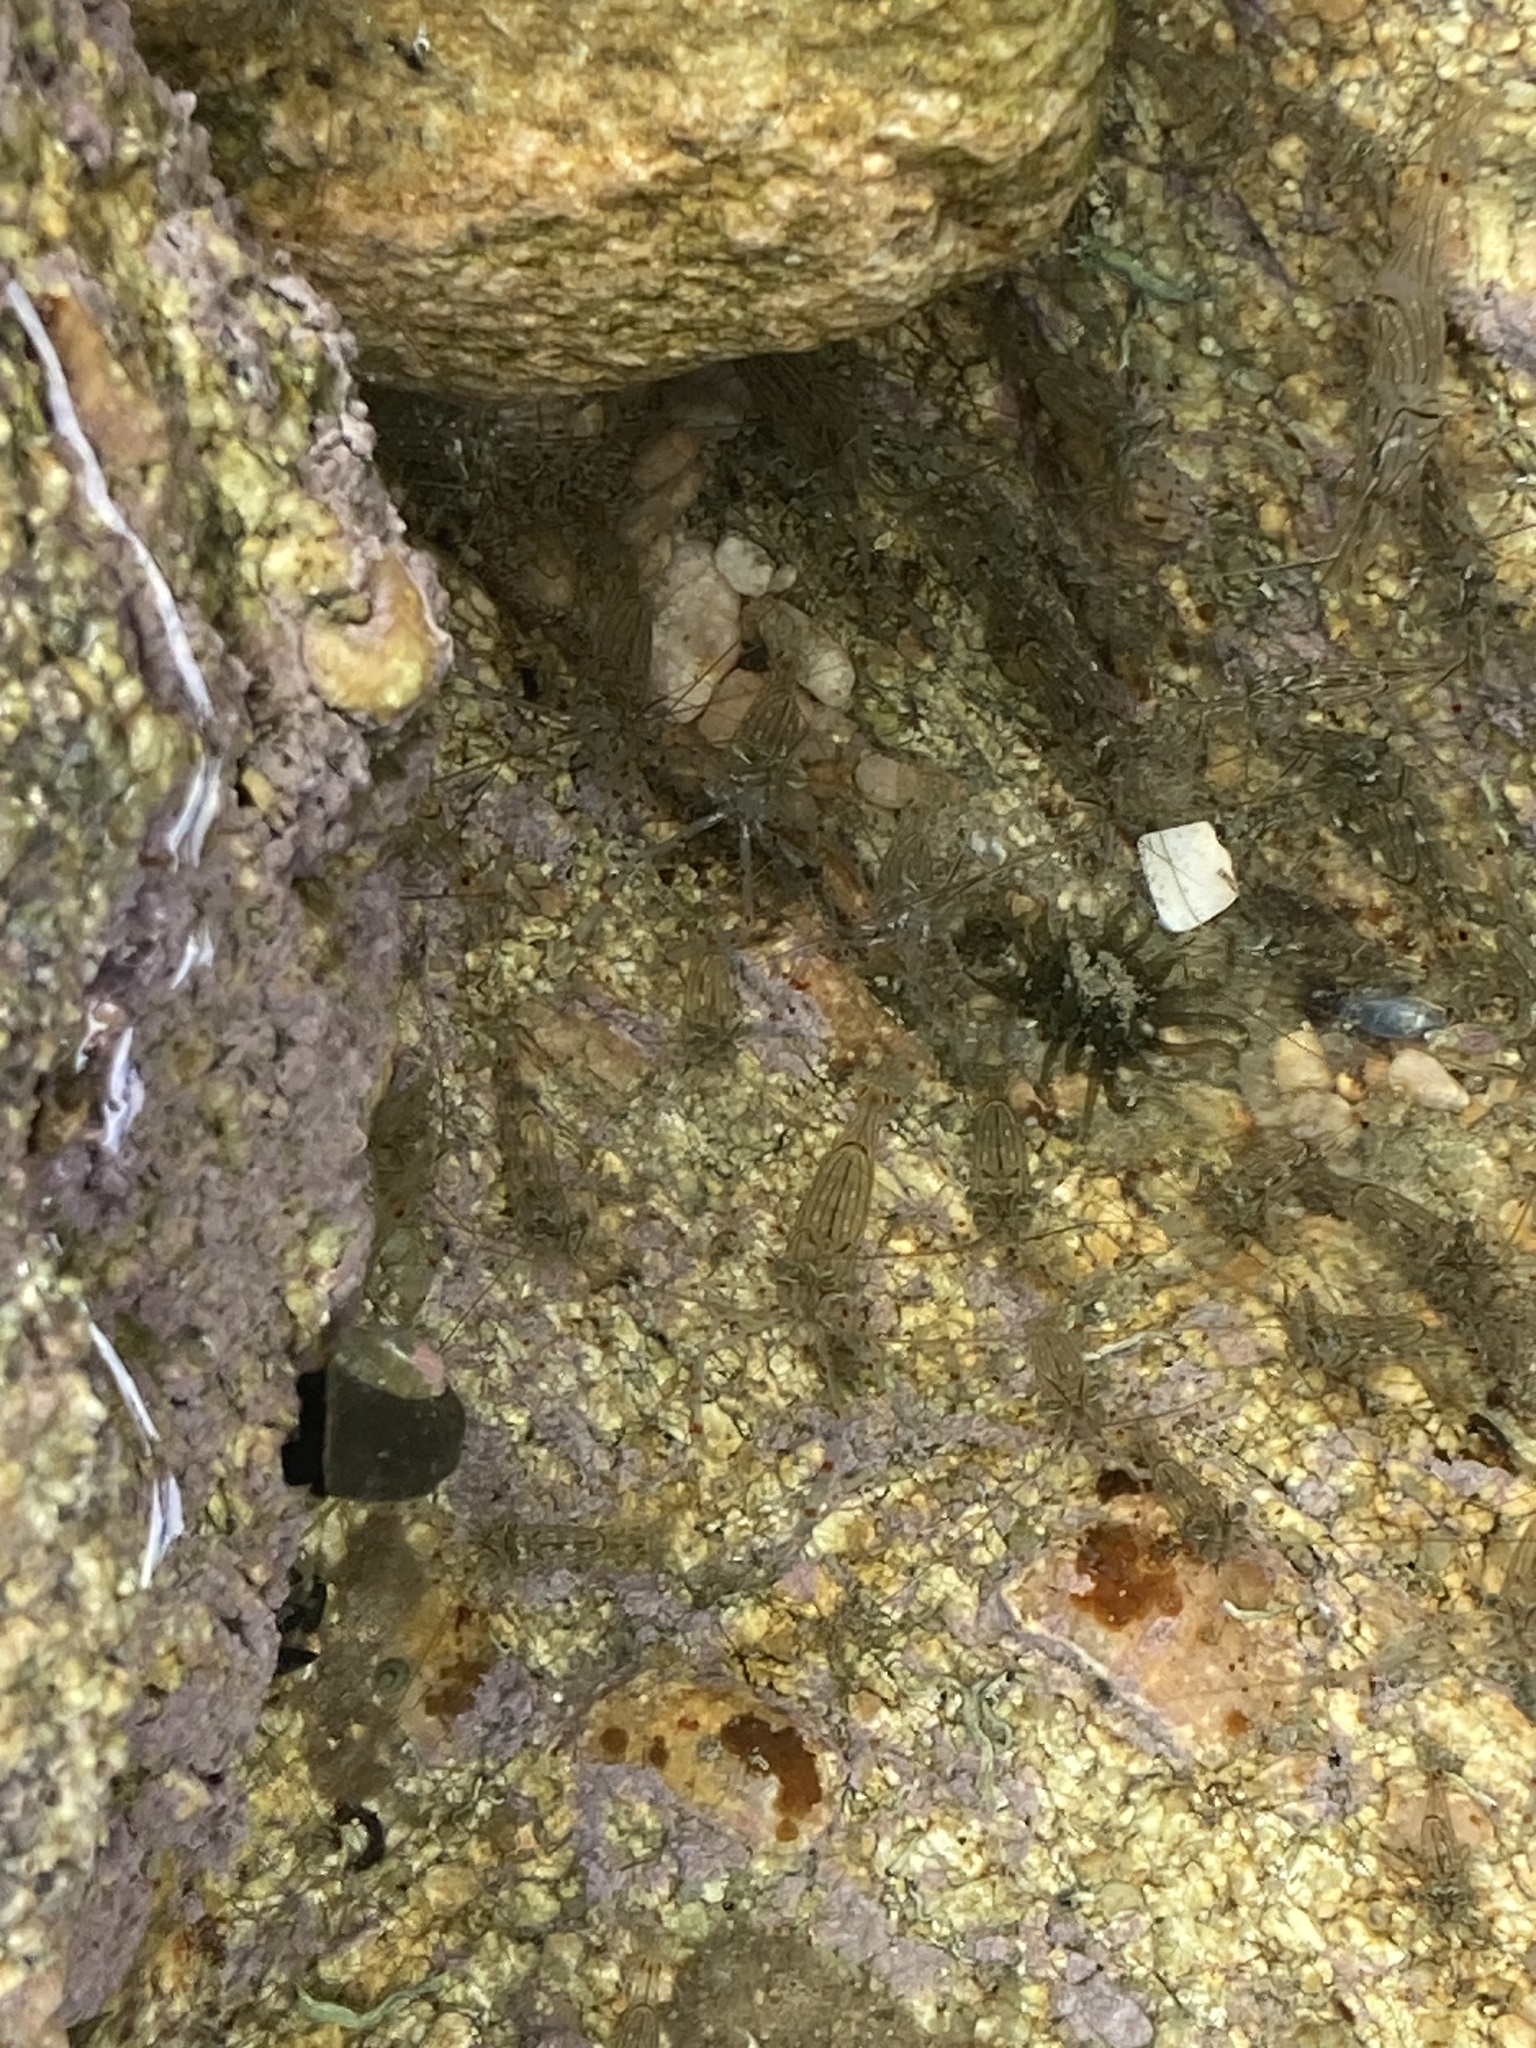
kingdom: Animalia
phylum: Arthropoda
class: Malacostraca
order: Decapoda
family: Palaemonidae
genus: Palaemon
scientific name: Palaemon affinis
